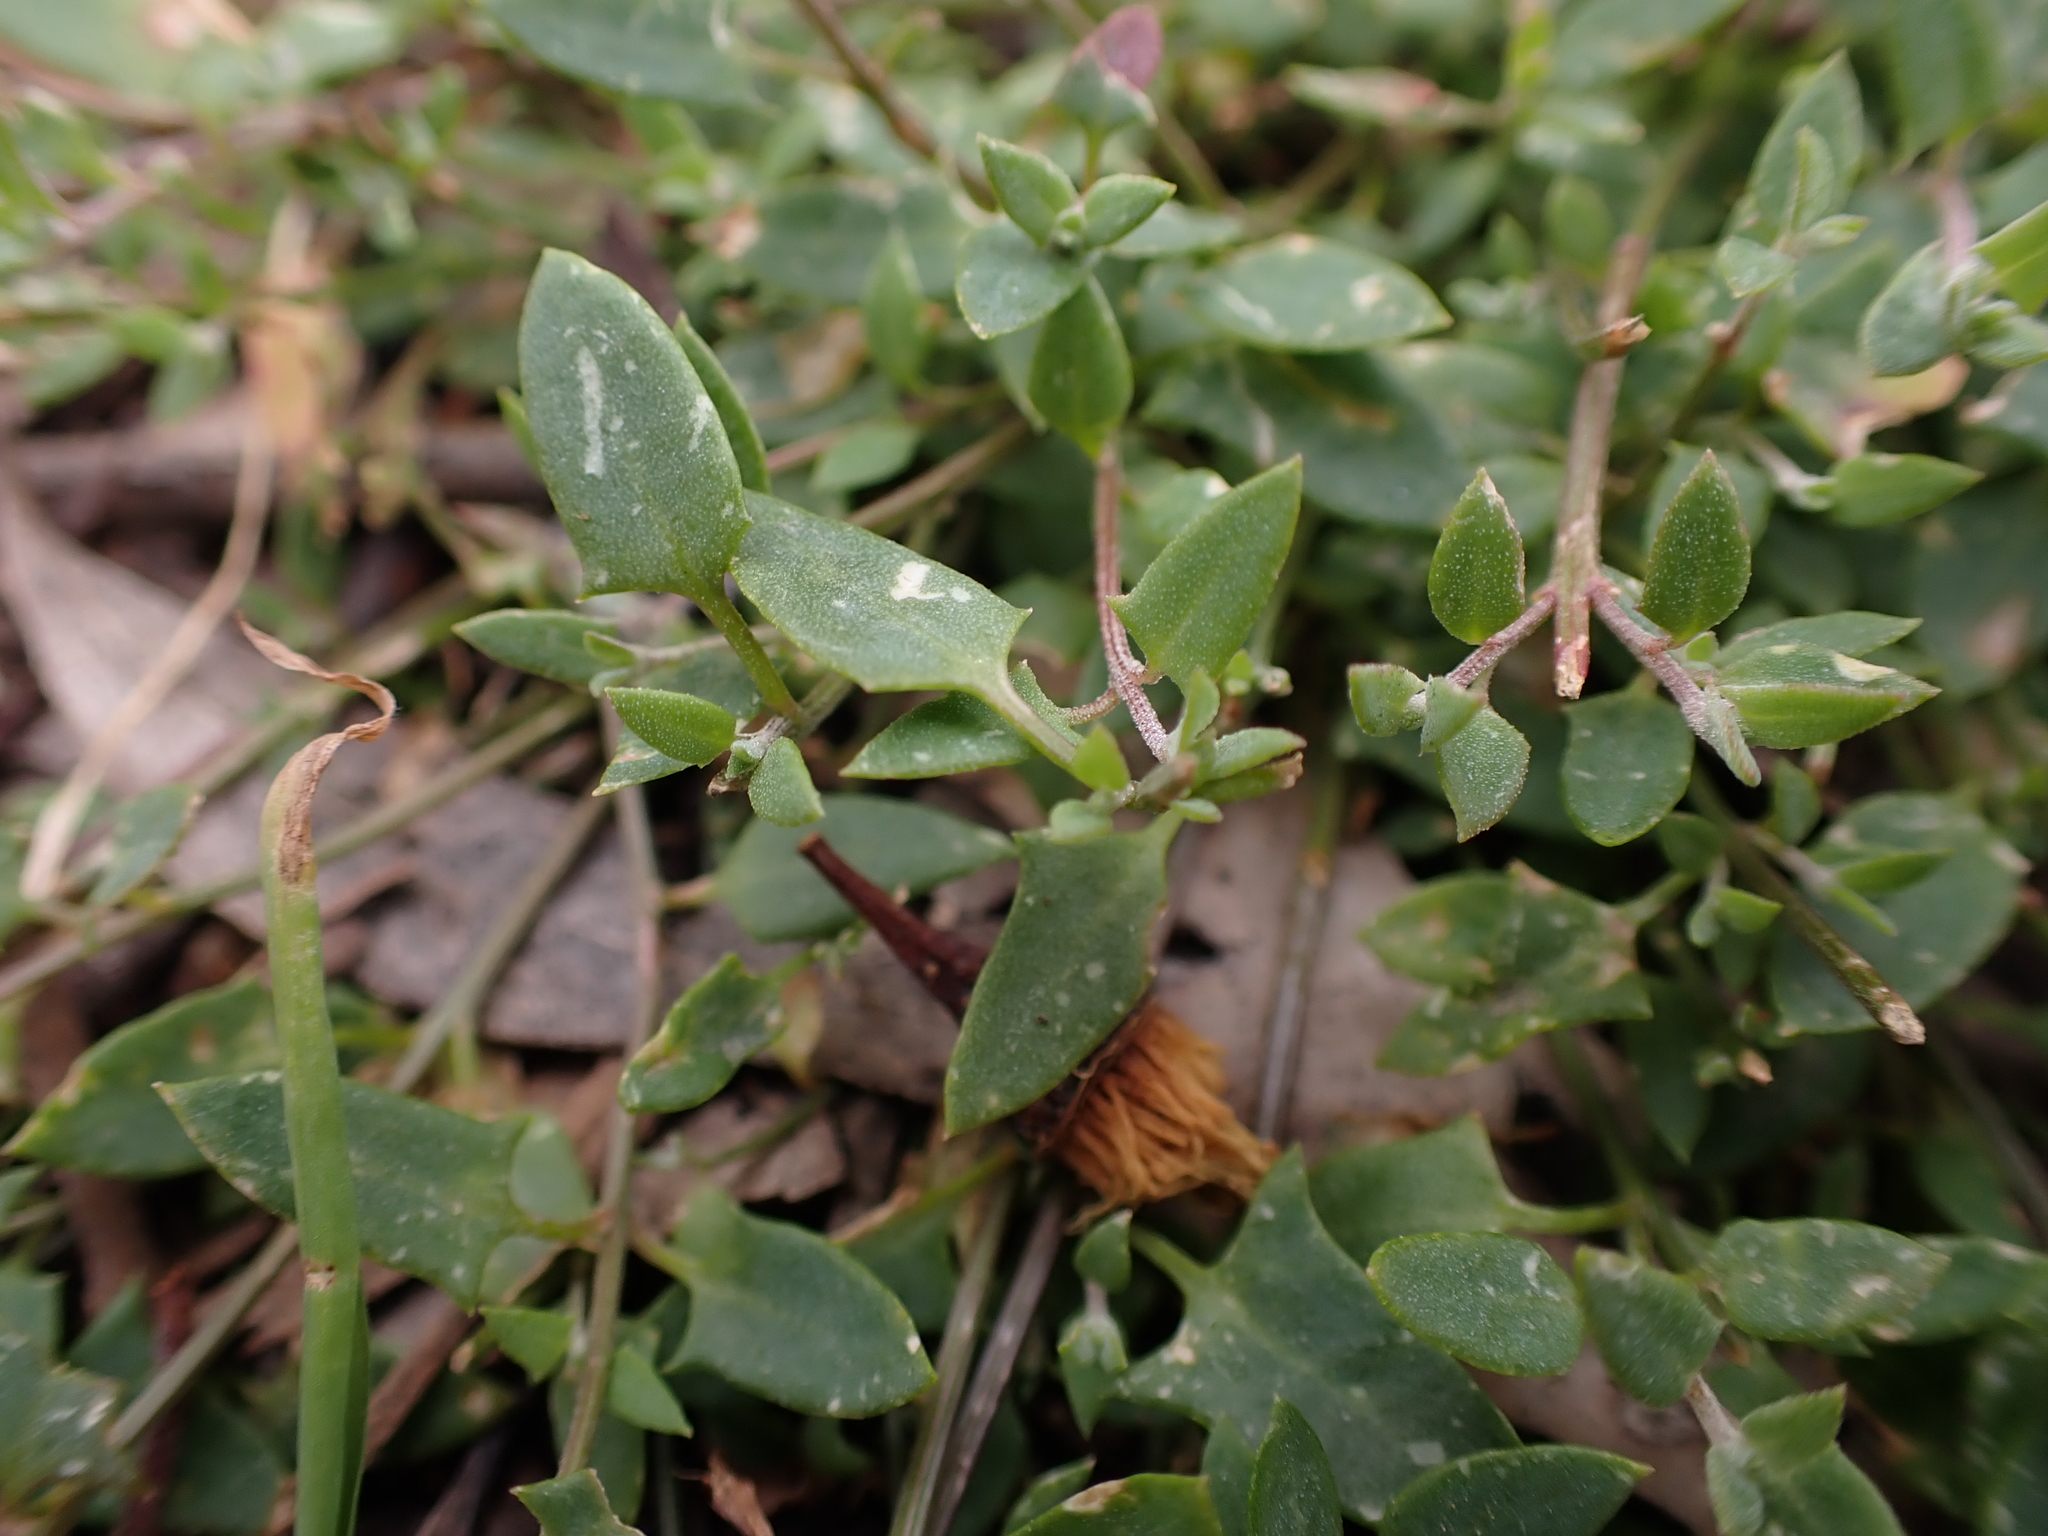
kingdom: Plantae
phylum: Tracheophyta
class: Magnoliopsida
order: Caryophyllales
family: Amaranthaceae
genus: Chenopodium
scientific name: Chenopodium nutans
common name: Climbing-saltbush
